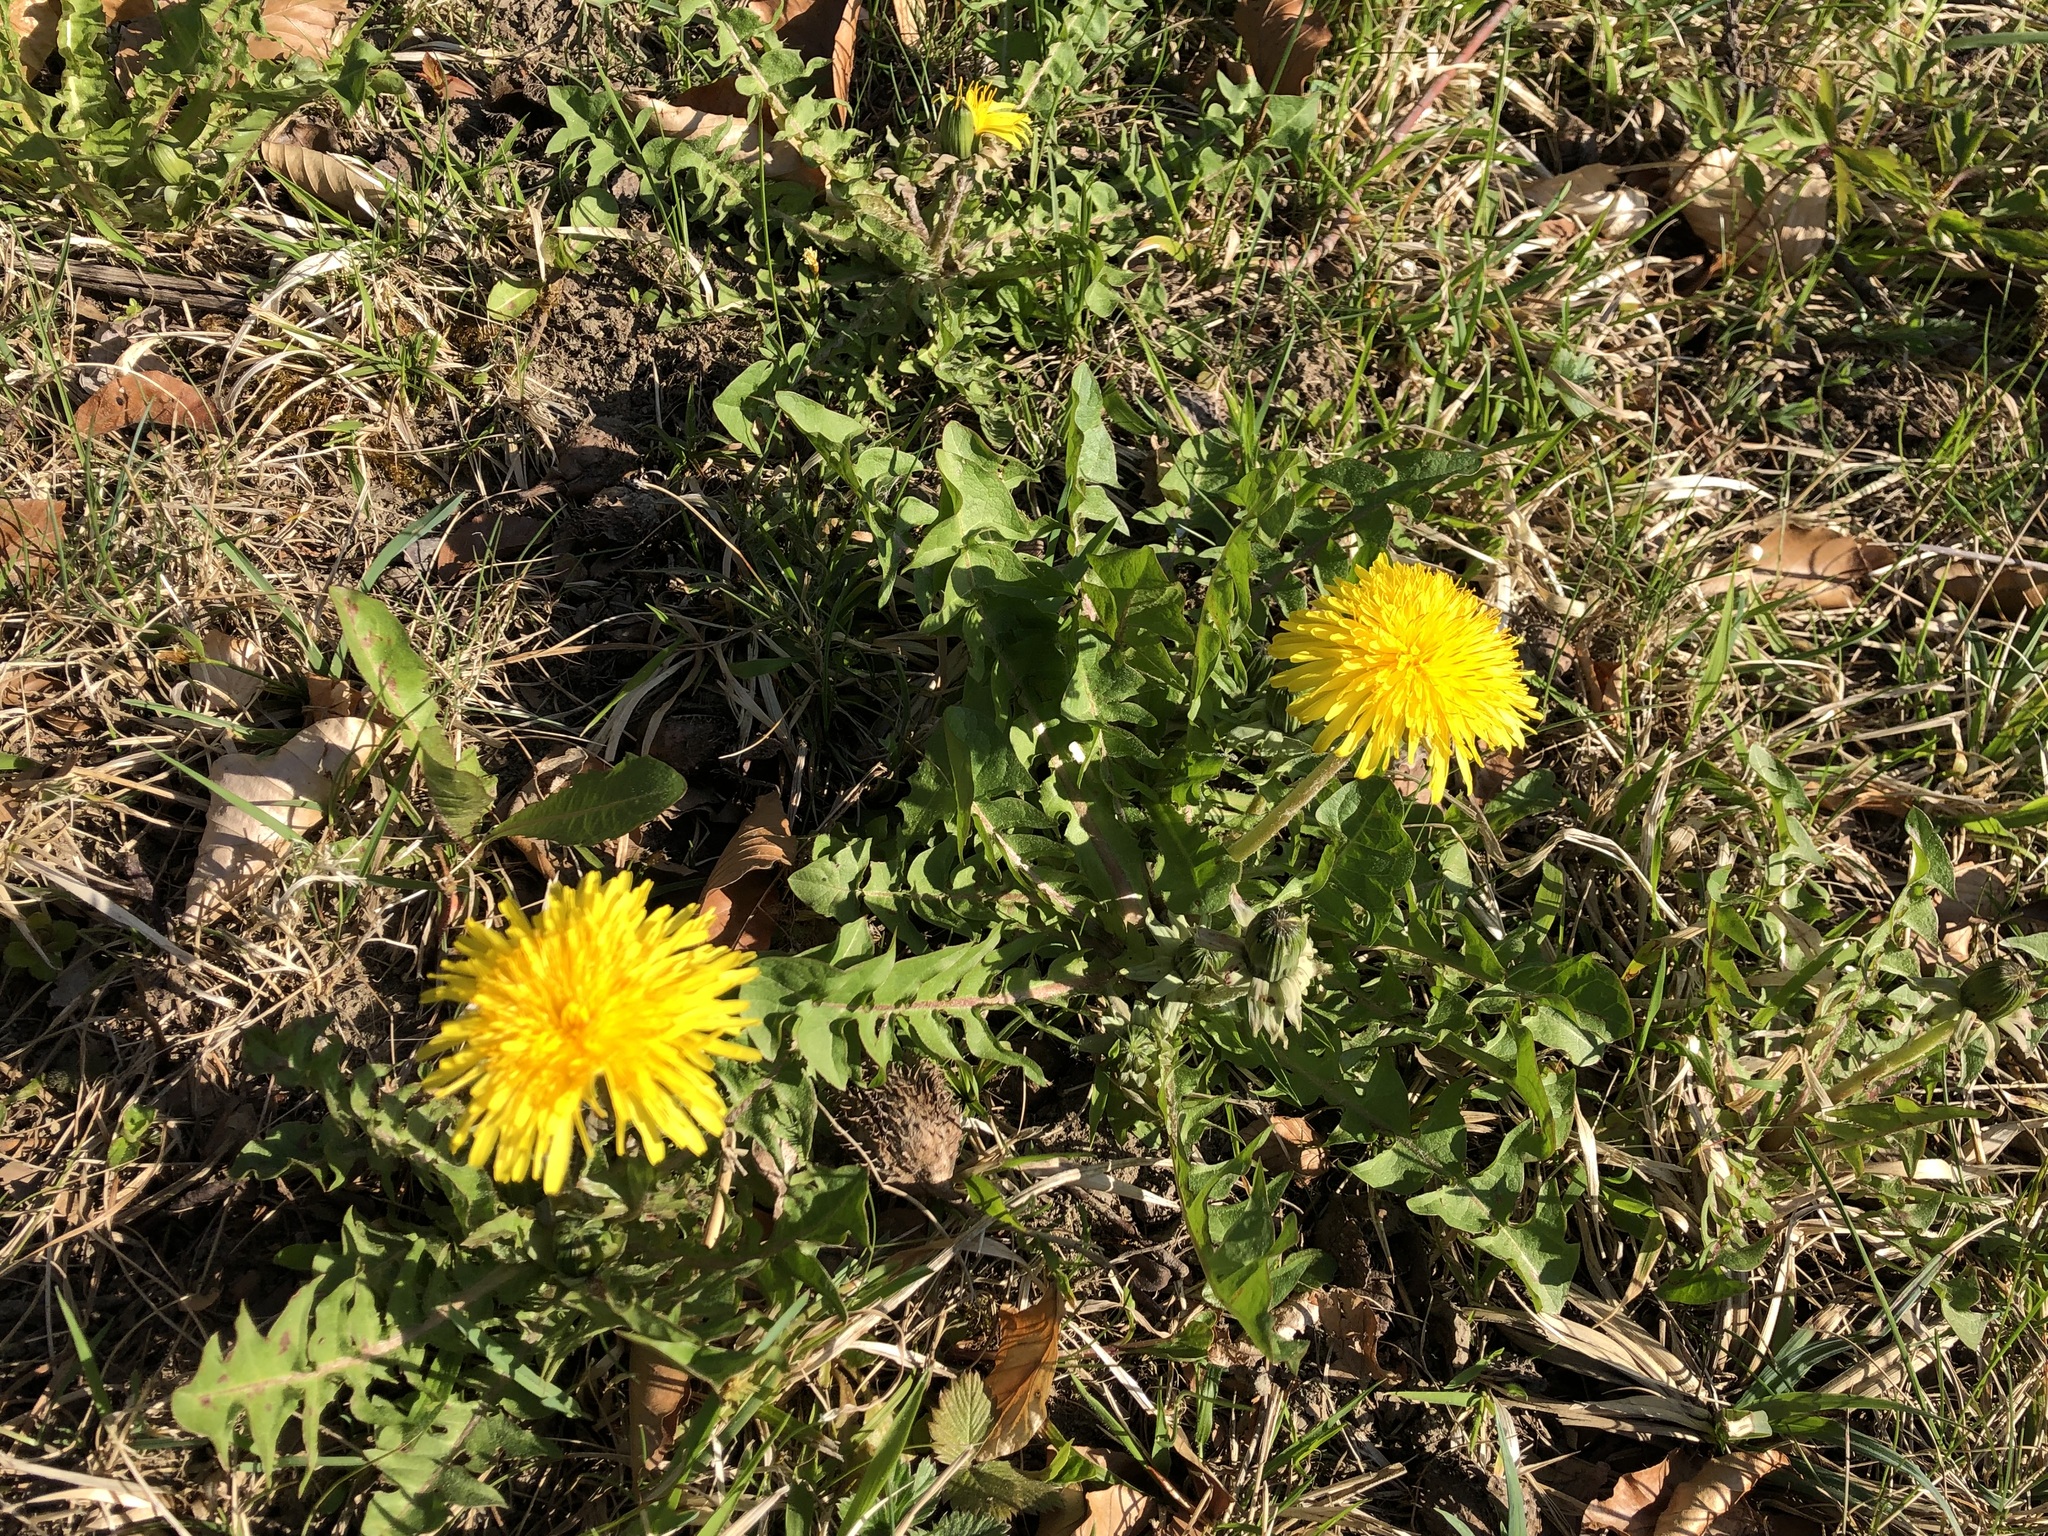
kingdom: Plantae
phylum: Tracheophyta
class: Magnoliopsida
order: Asterales
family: Asteraceae
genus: Taraxacum
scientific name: Taraxacum officinale
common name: Common dandelion
